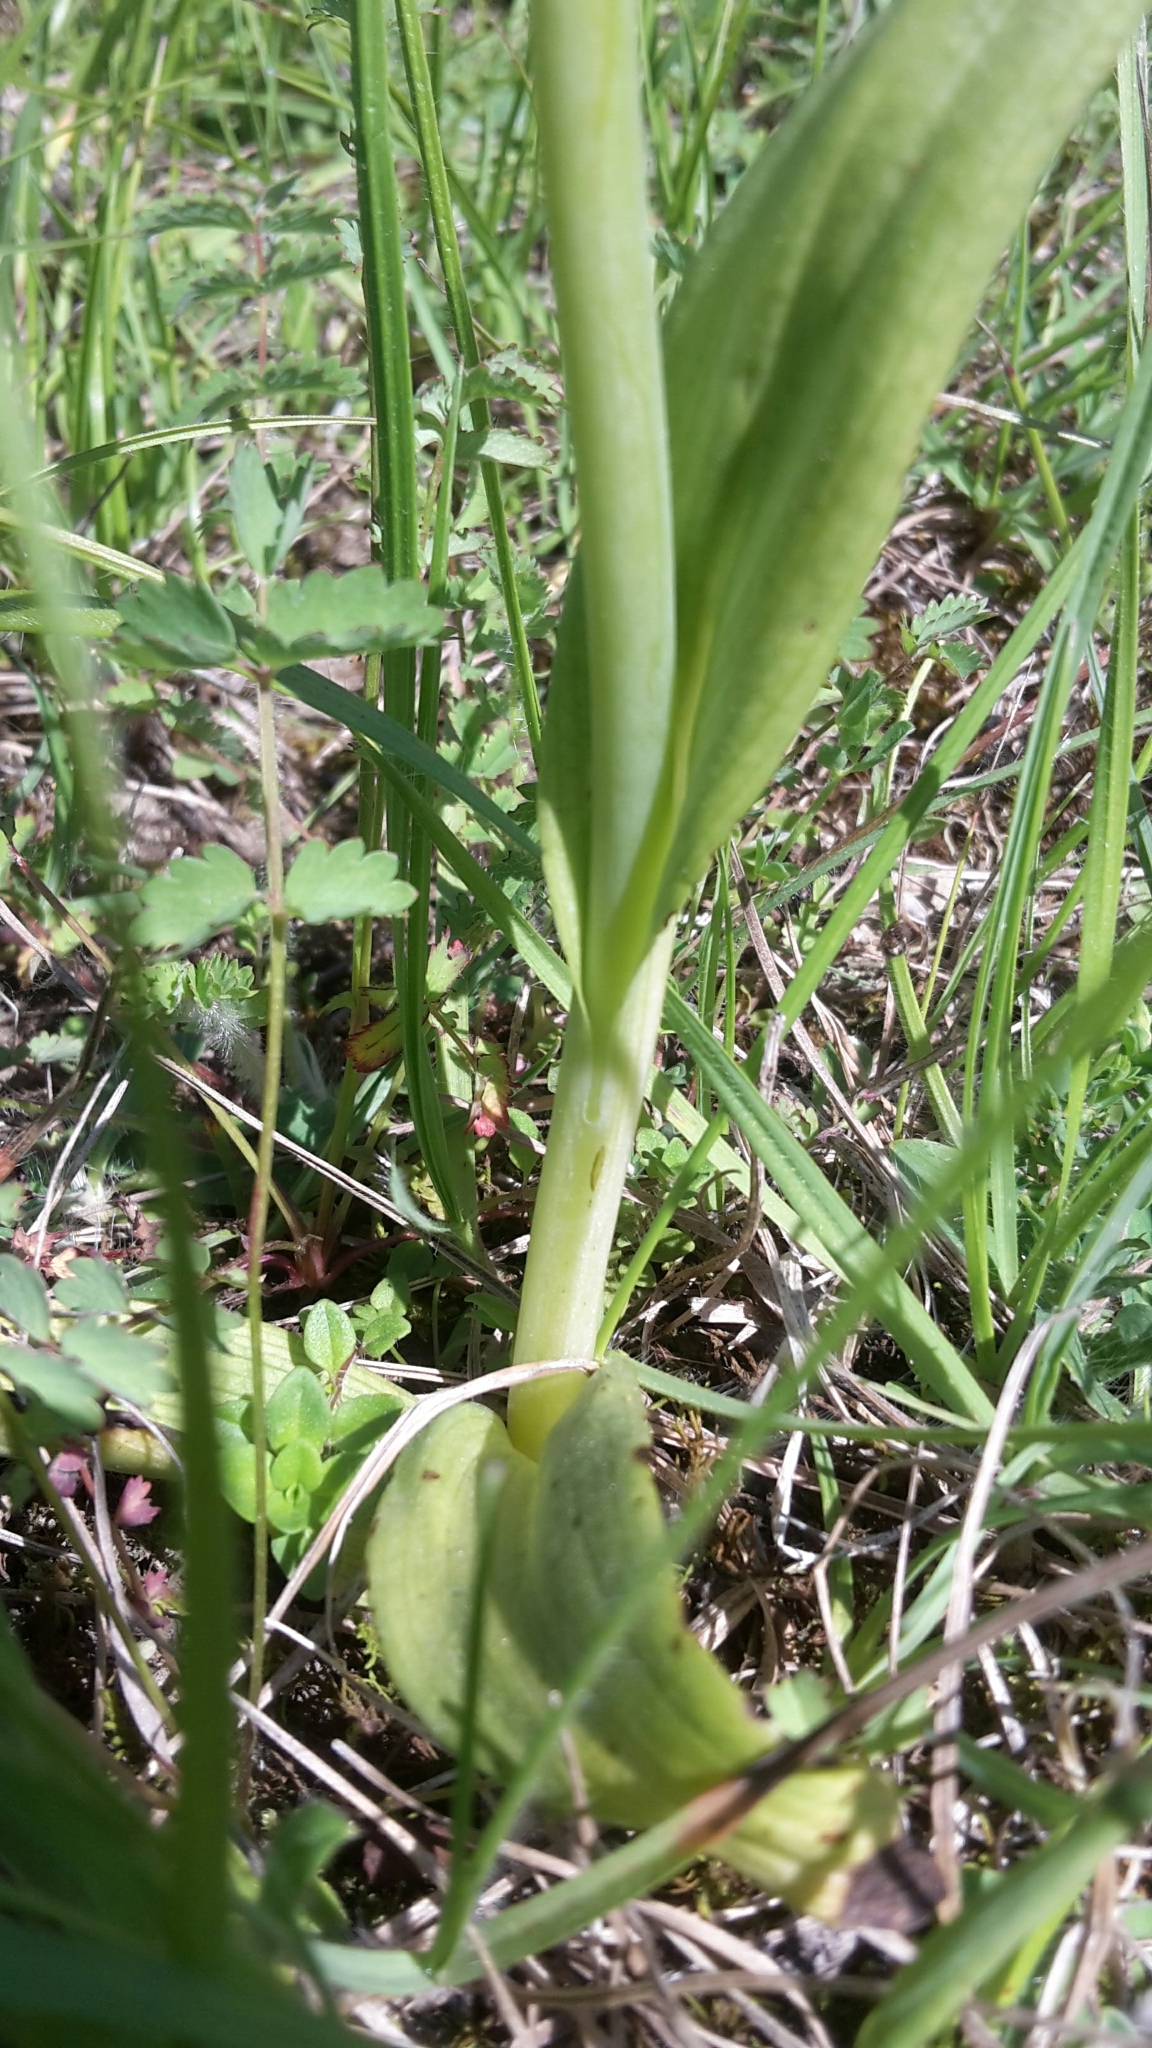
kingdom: Plantae
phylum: Tracheophyta
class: Liliopsida
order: Asparagales
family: Orchidaceae
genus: Ophrys
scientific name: Ophrys apifera
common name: Bee orchid
